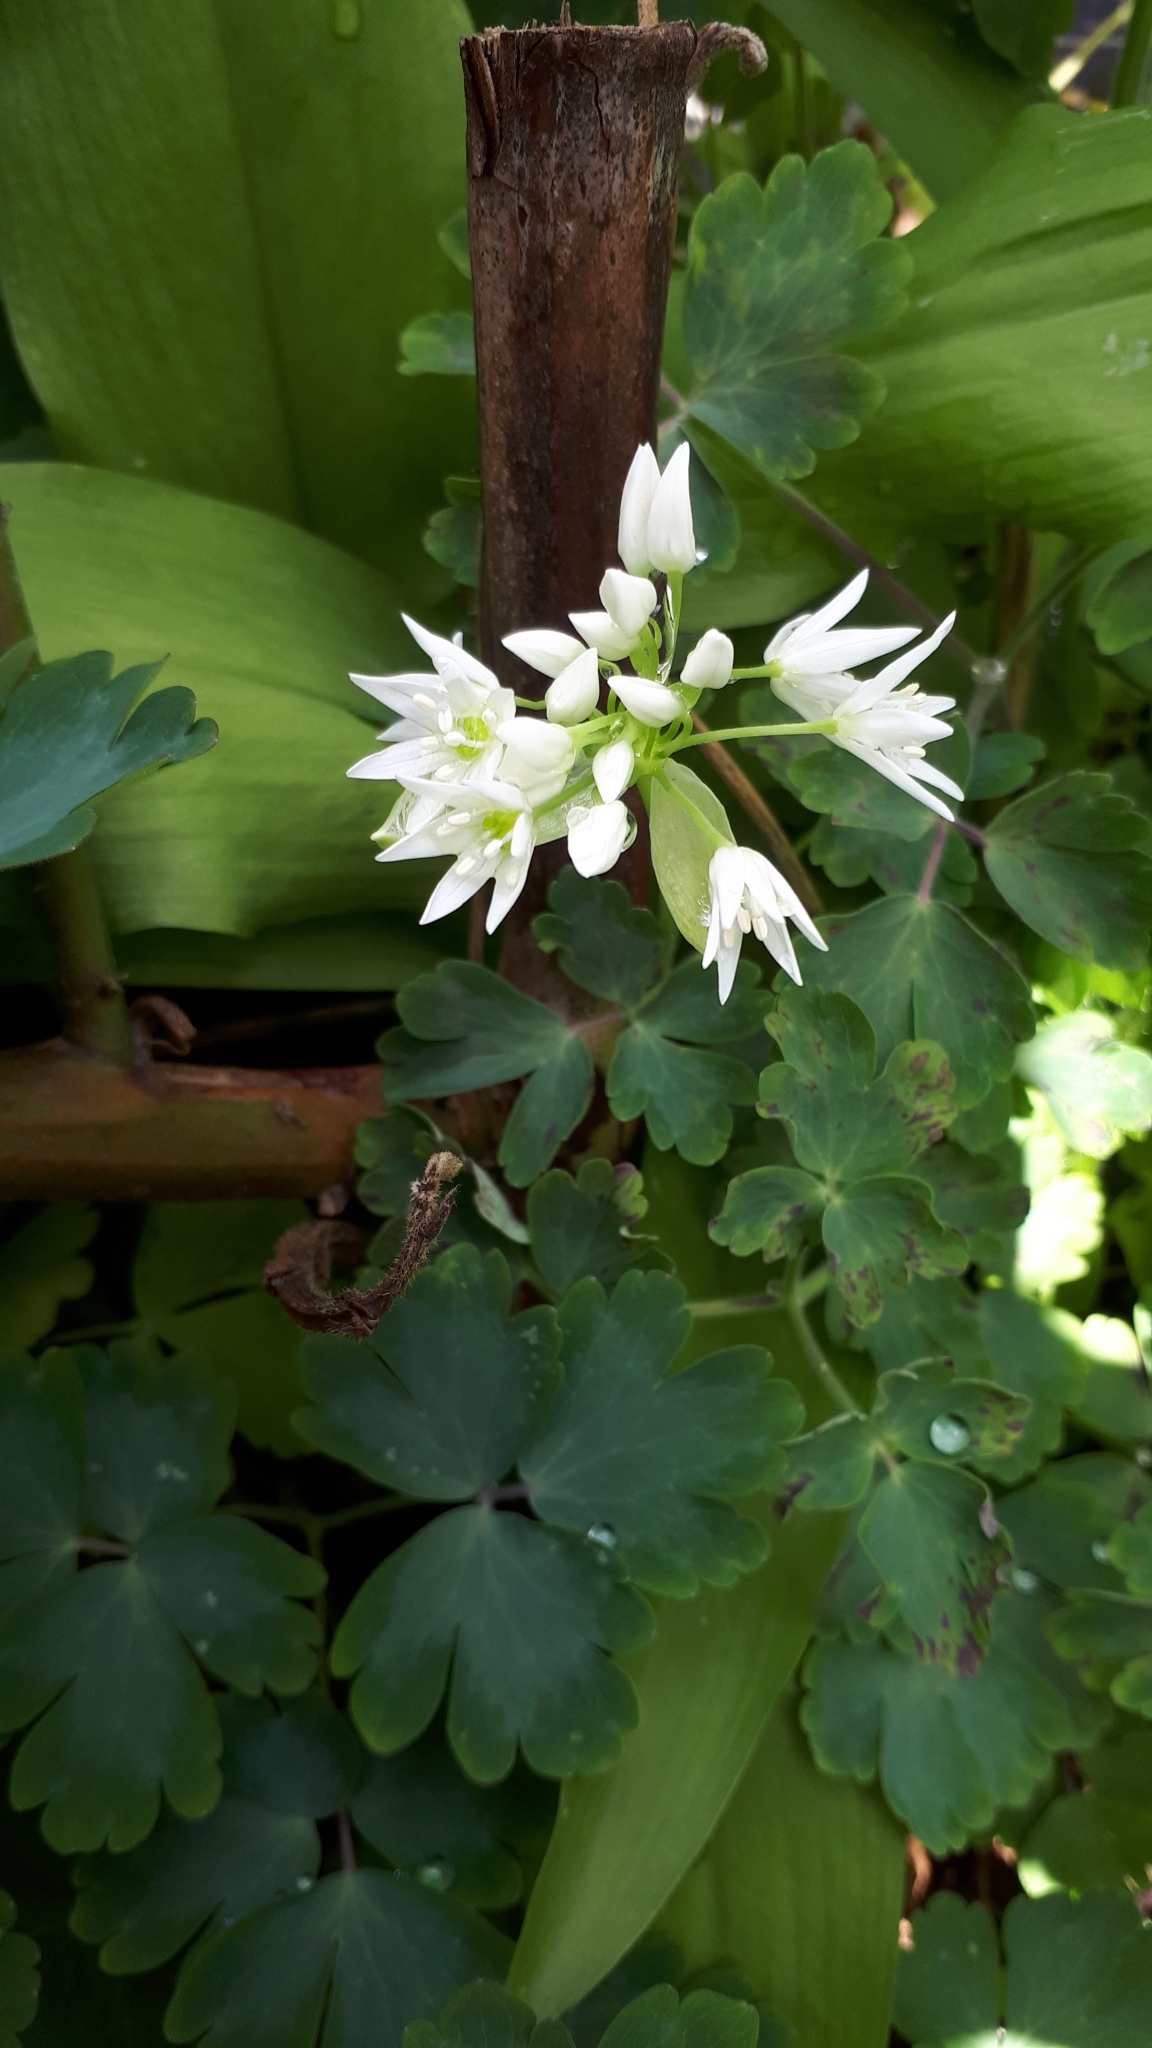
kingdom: Plantae
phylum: Tracheophyta
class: Liliopsida
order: Asparagales
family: Amaryllidaceae
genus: Allium
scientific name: Allium ursinum
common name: Ramsons
